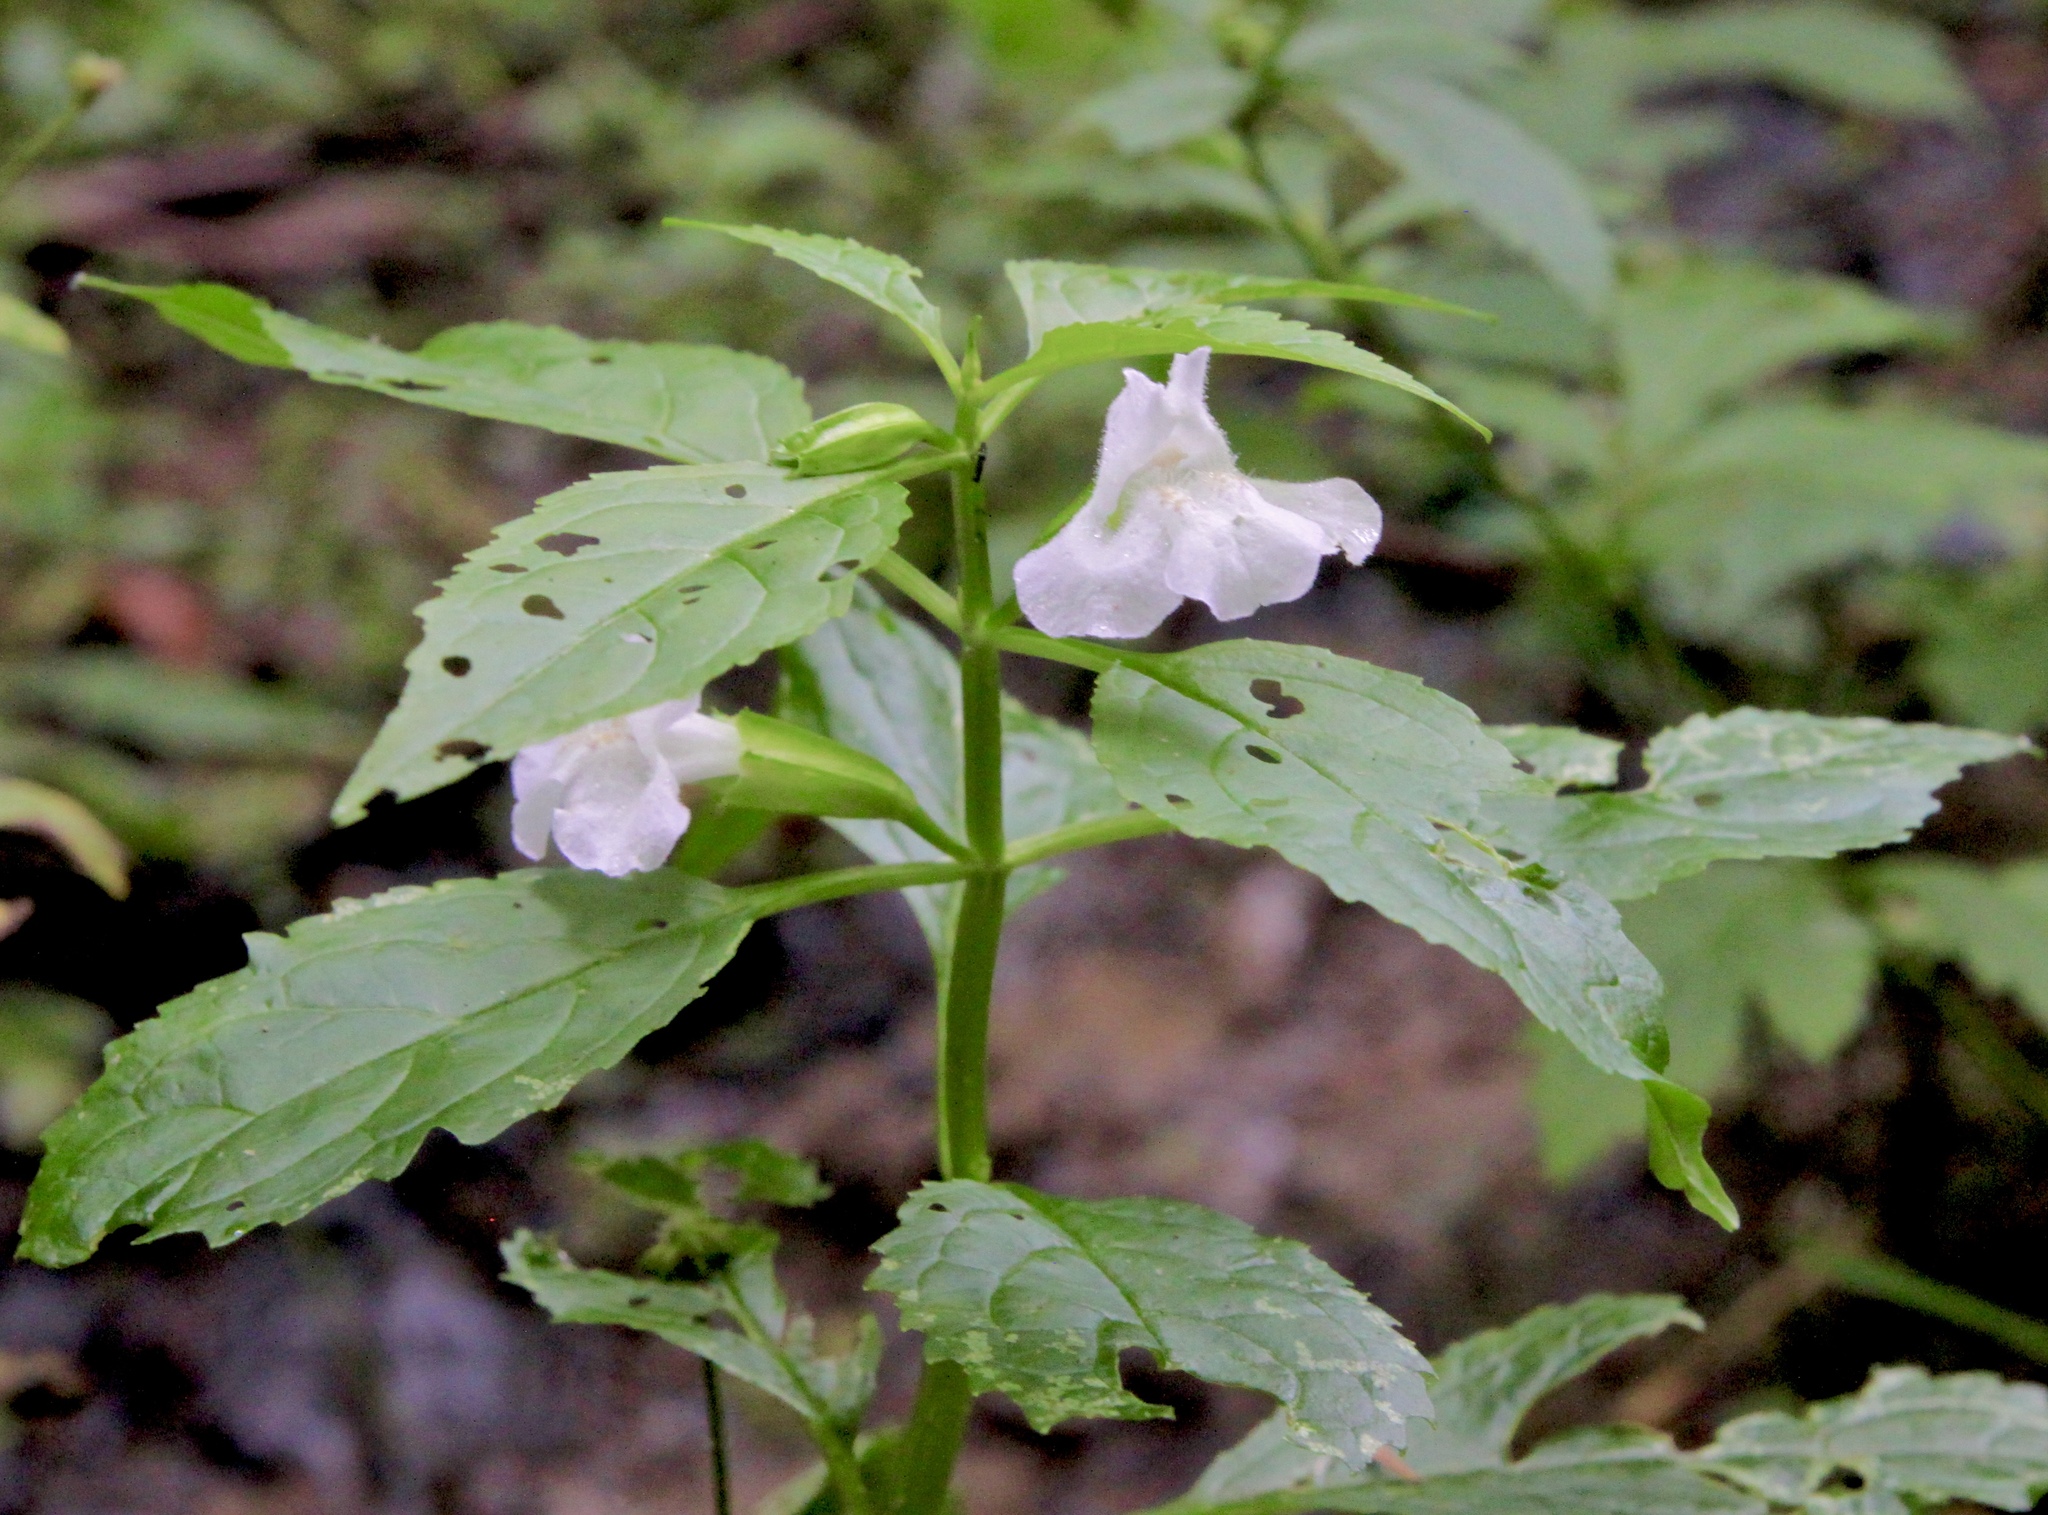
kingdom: Plantae
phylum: Tracheophyta
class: Magnoliopsida
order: Lamiales
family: Phrymaceae
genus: Mimulus
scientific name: Mimulus alatus
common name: Sharp-wing monkey-flower
